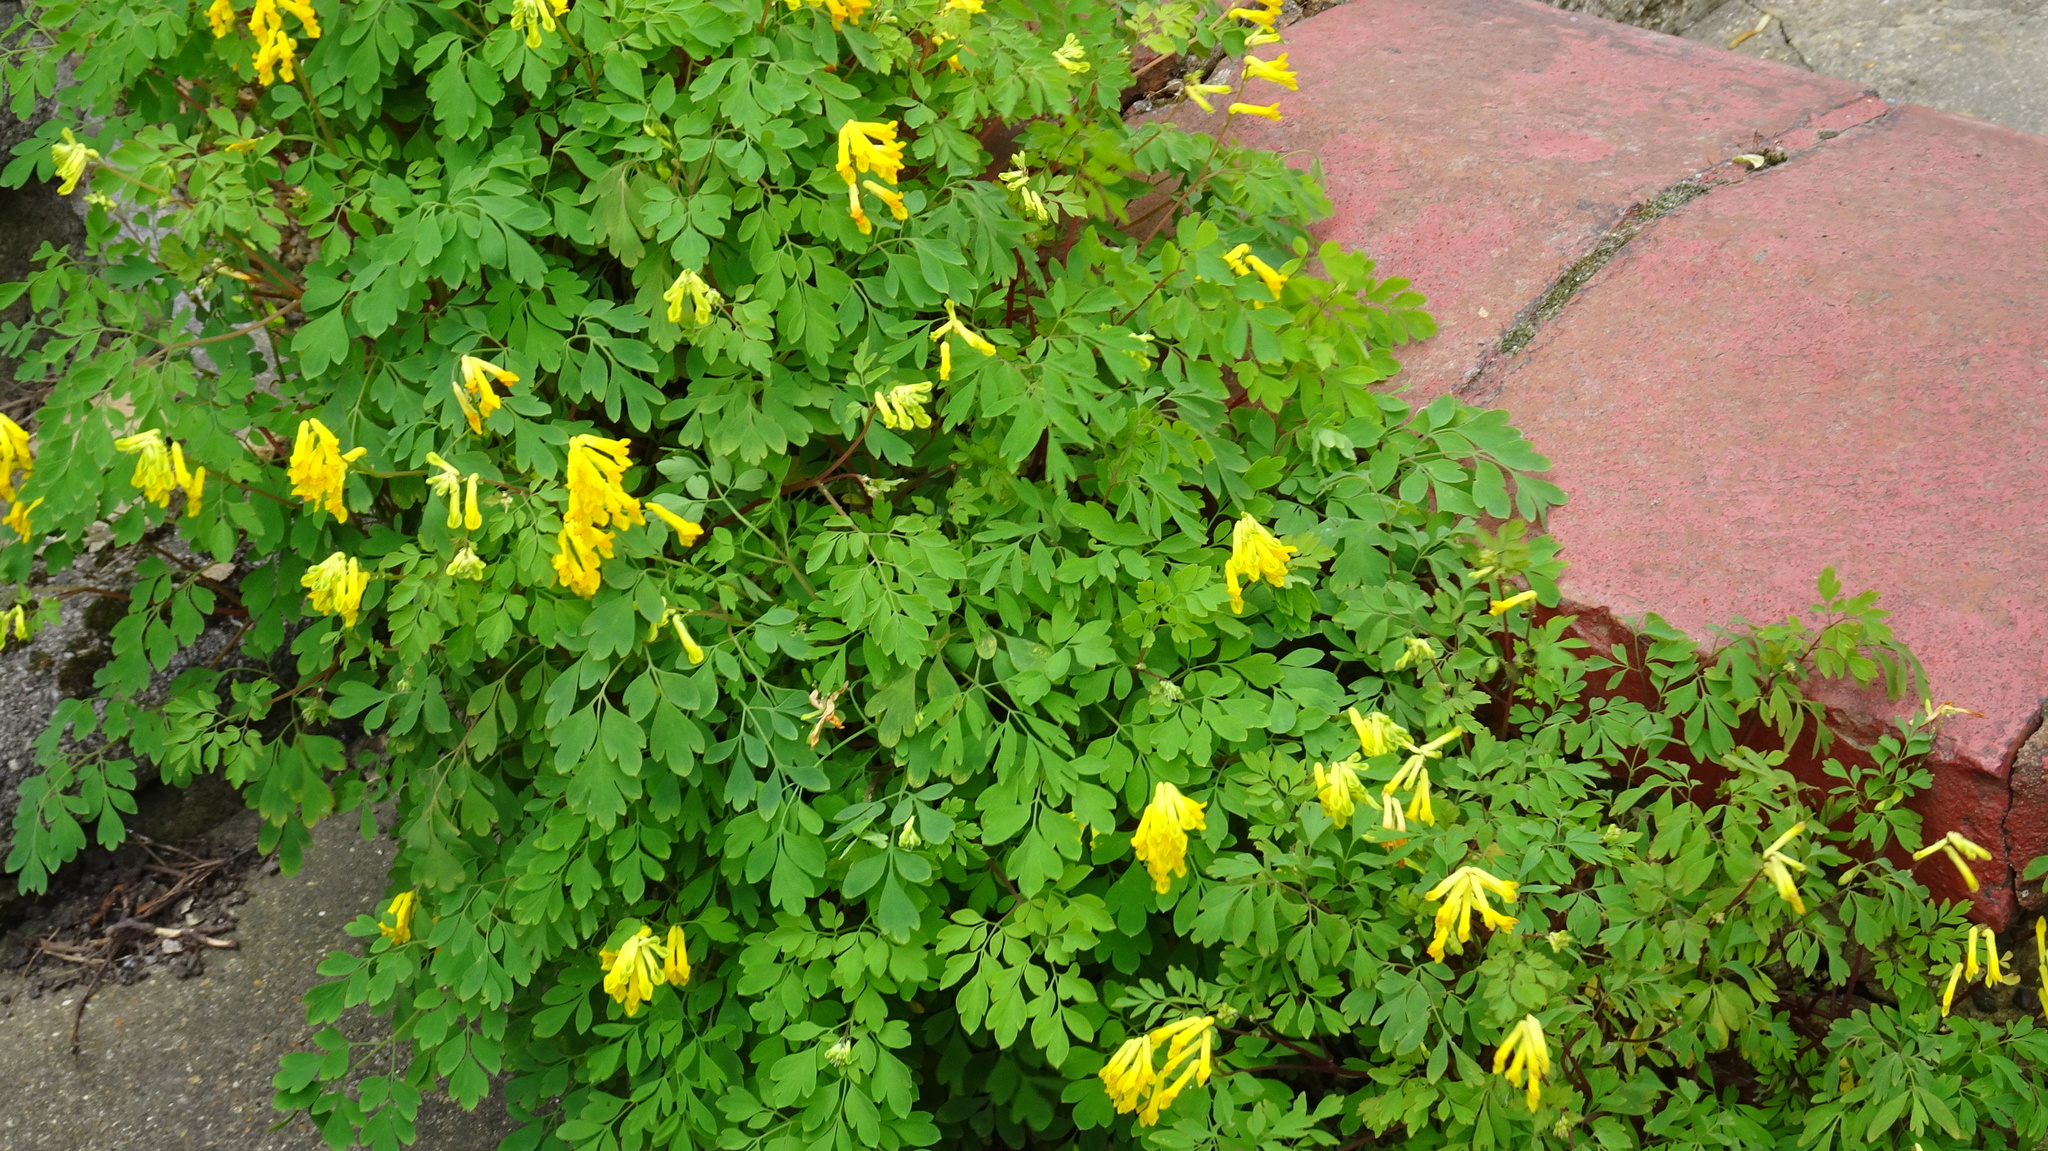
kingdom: Plantae
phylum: Tracheophyta
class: Magnoliopsida
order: Ranunculales
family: Papaveraceae
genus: Pseudofumaria
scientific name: Pseudofumaria lutea
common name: Yellow corydalis
